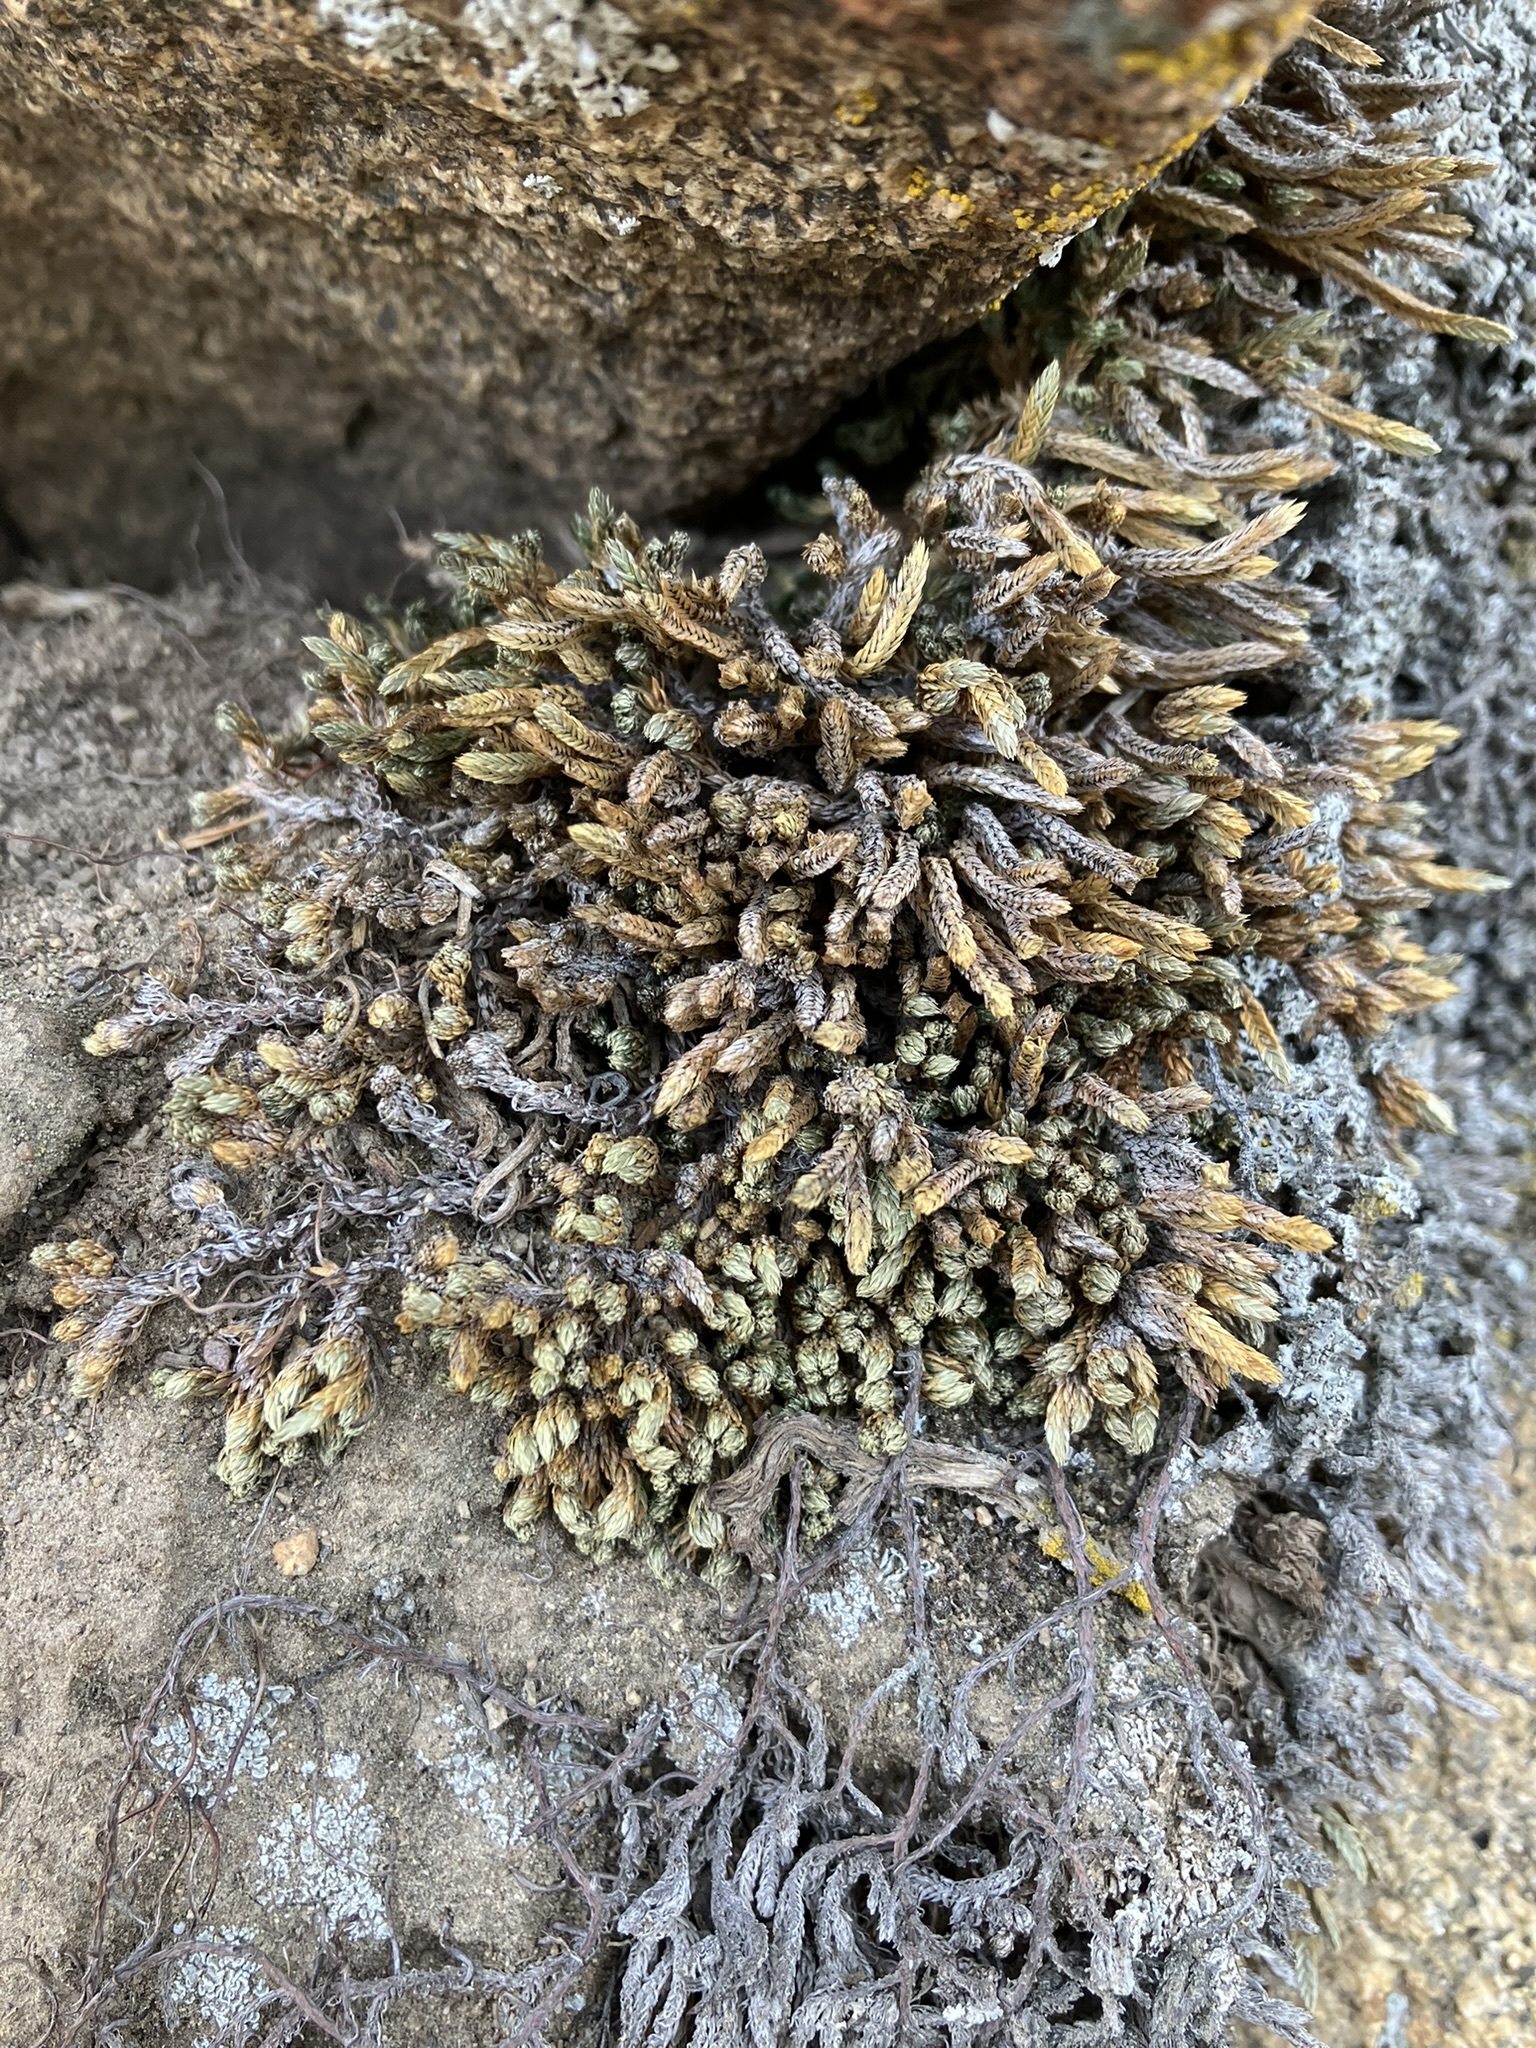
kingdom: Plantae
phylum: Tracheophyta
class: Lycopodiopsida
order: Selaginellales
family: Selaginellaceae
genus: Selaginella
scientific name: Selaginella watsonii
